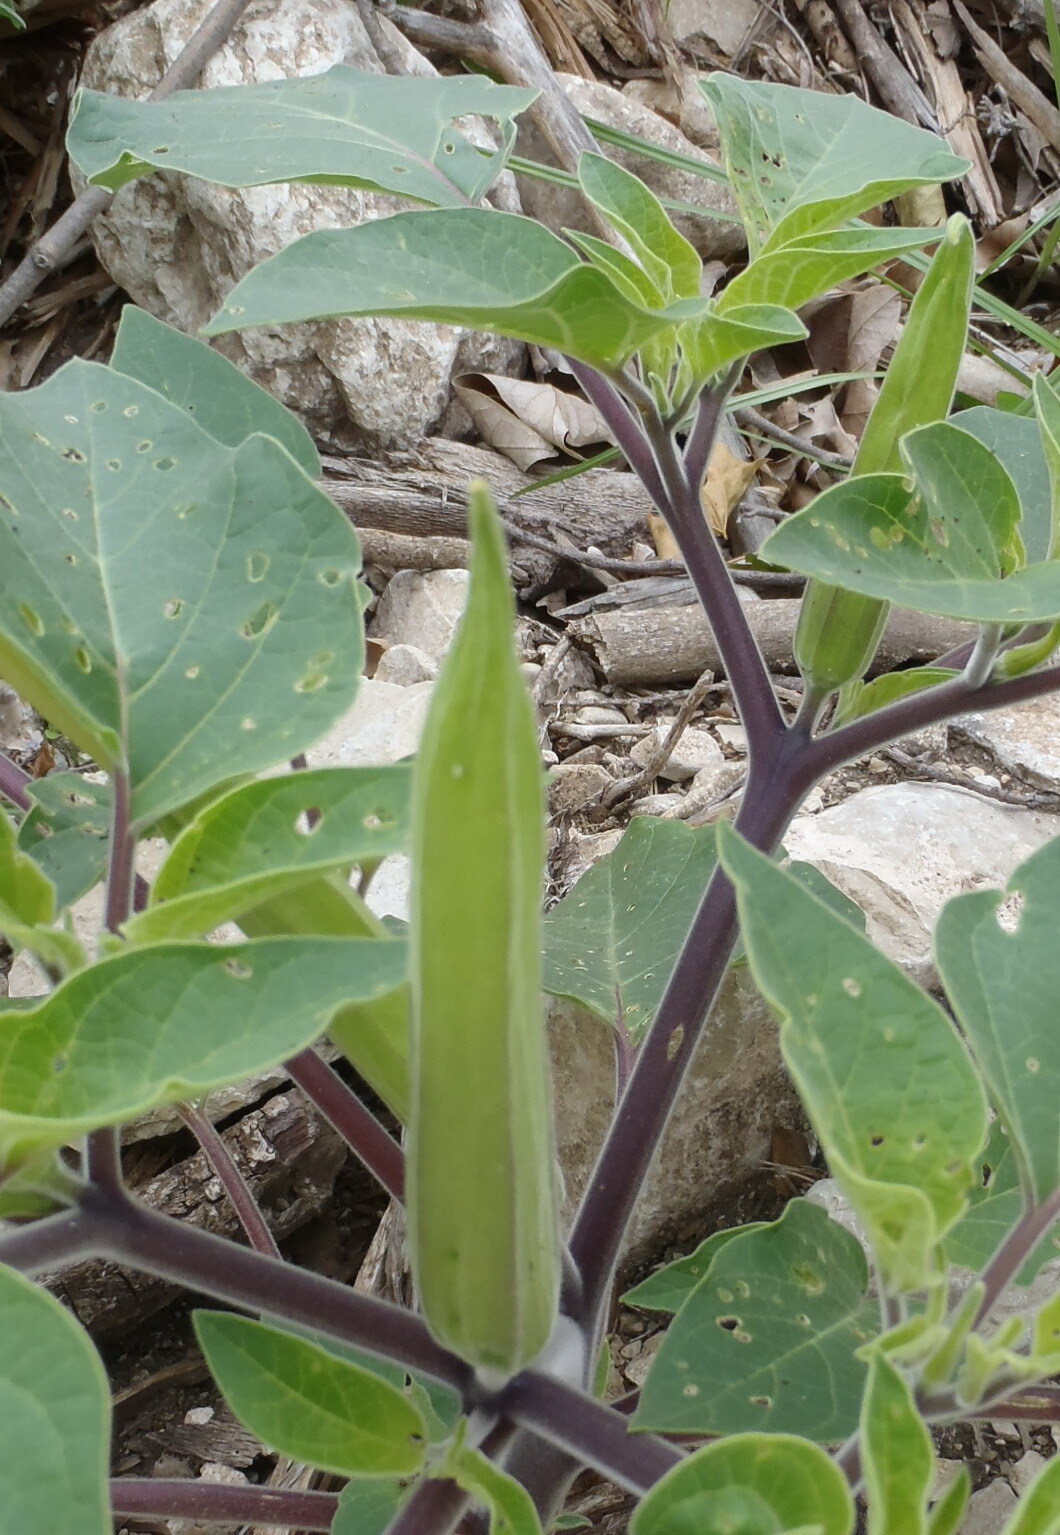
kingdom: Plantae
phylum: Tracheophyta
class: Magnoliopsida
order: Solanales
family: Solanaceae
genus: Datura
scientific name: Datura innoxia
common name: Downy thorn-apple
